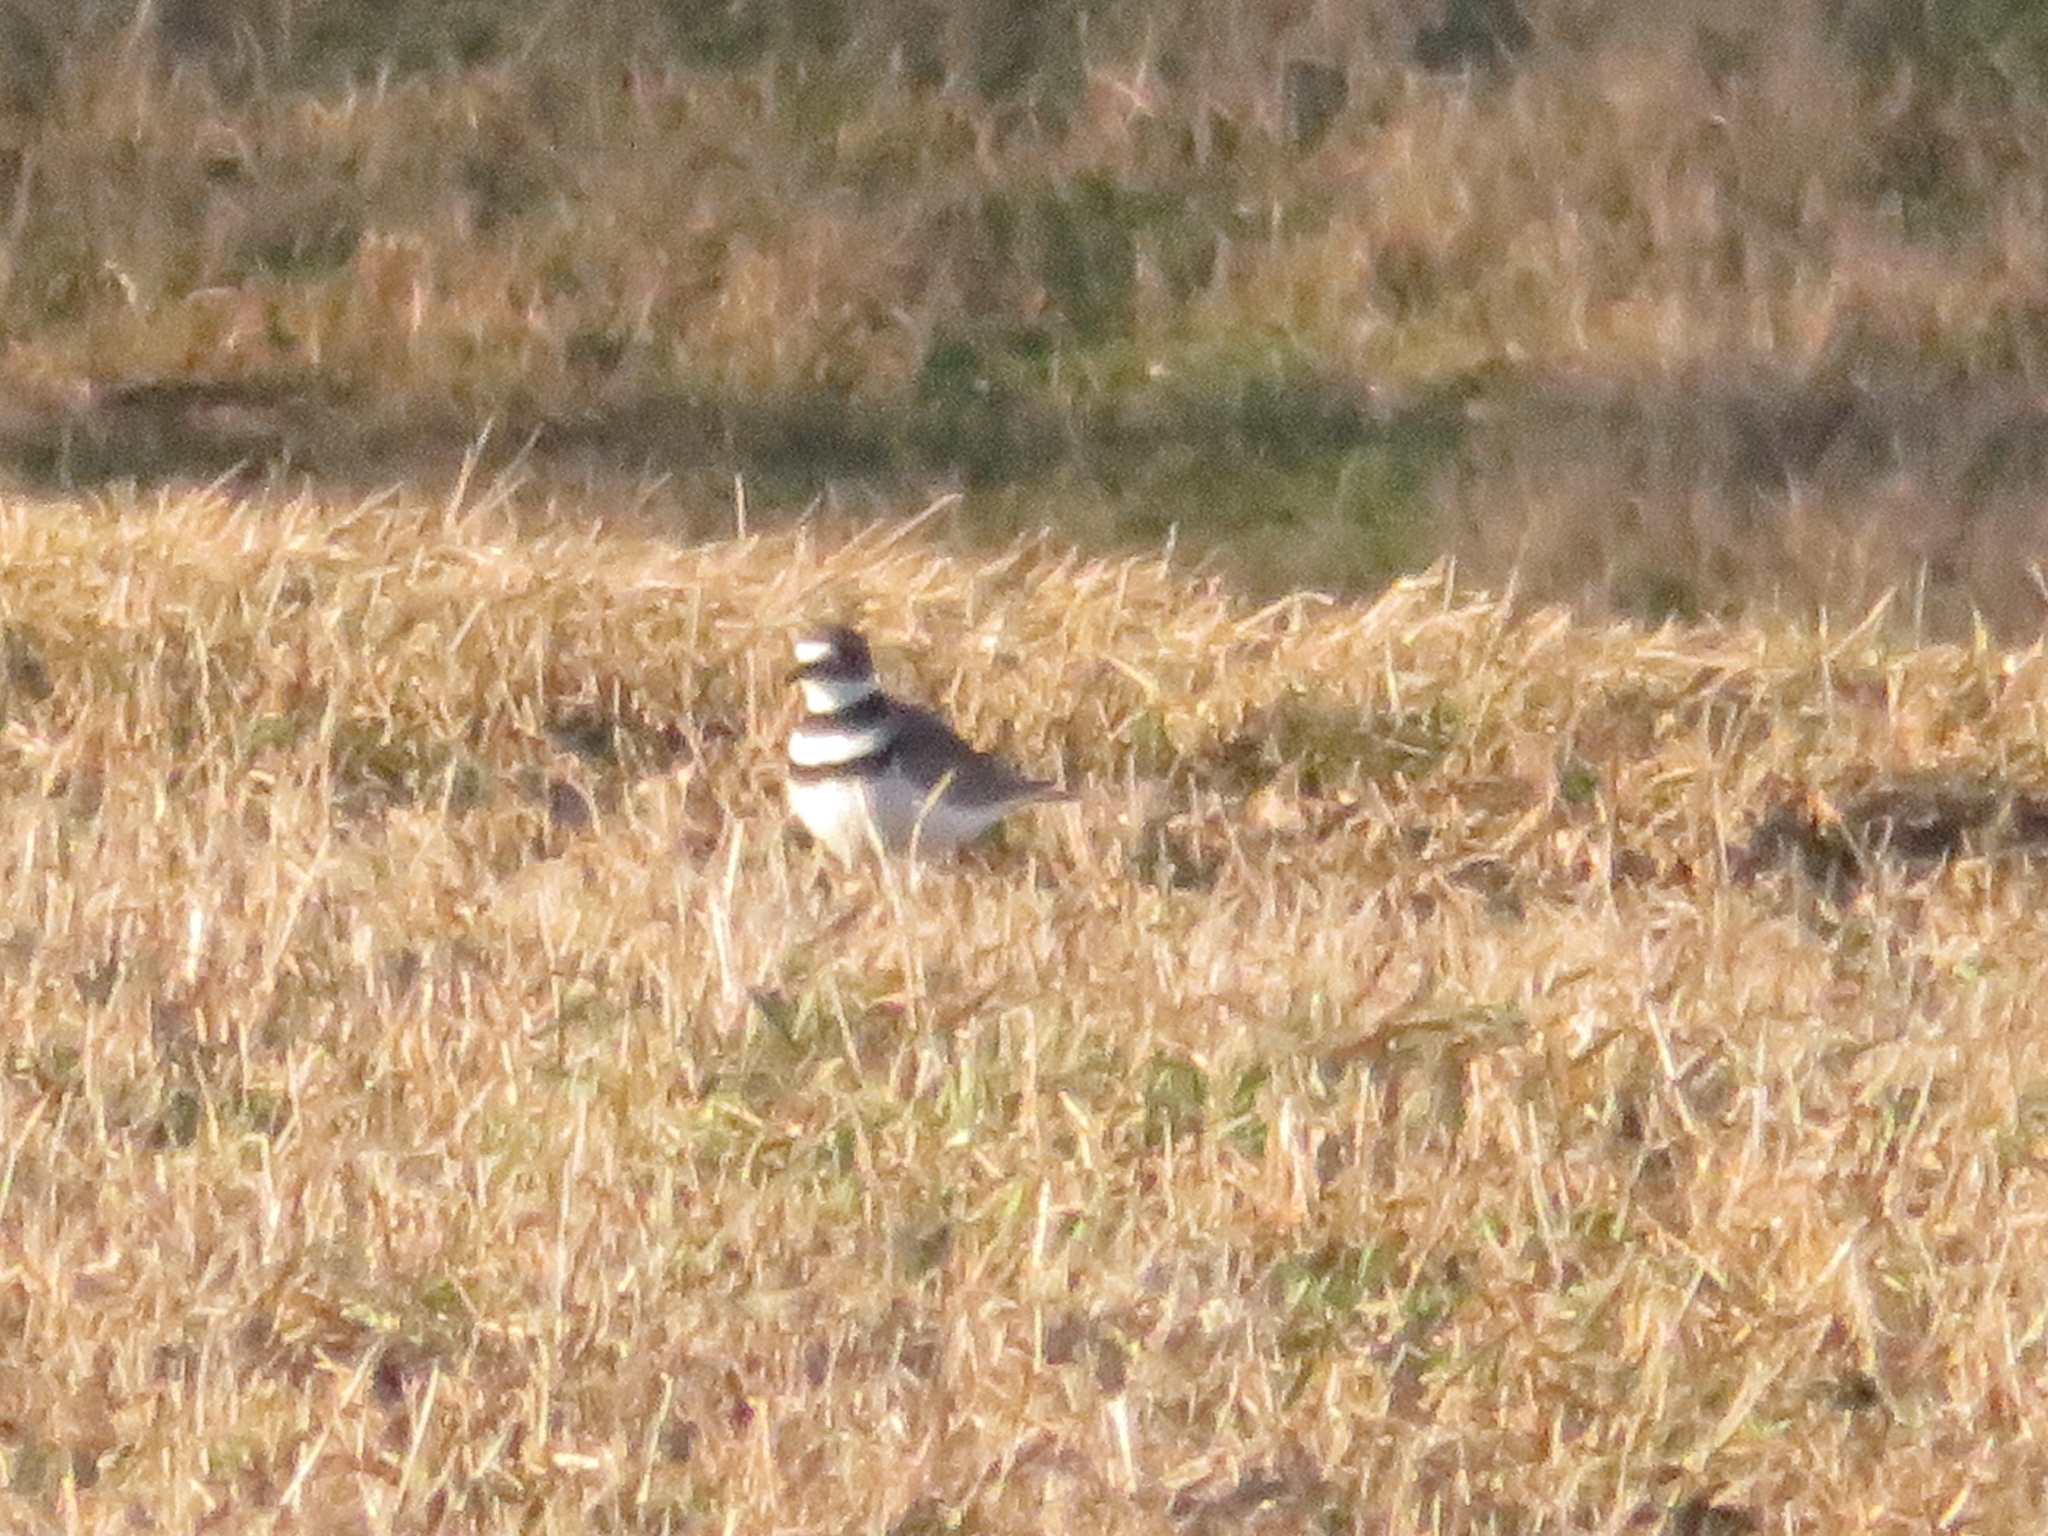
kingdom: Animalia
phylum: Chordata
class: Aves
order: Charadriiformes
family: Charadriidae
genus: Charadrius
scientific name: Charadrius vociferus
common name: Killdeer
